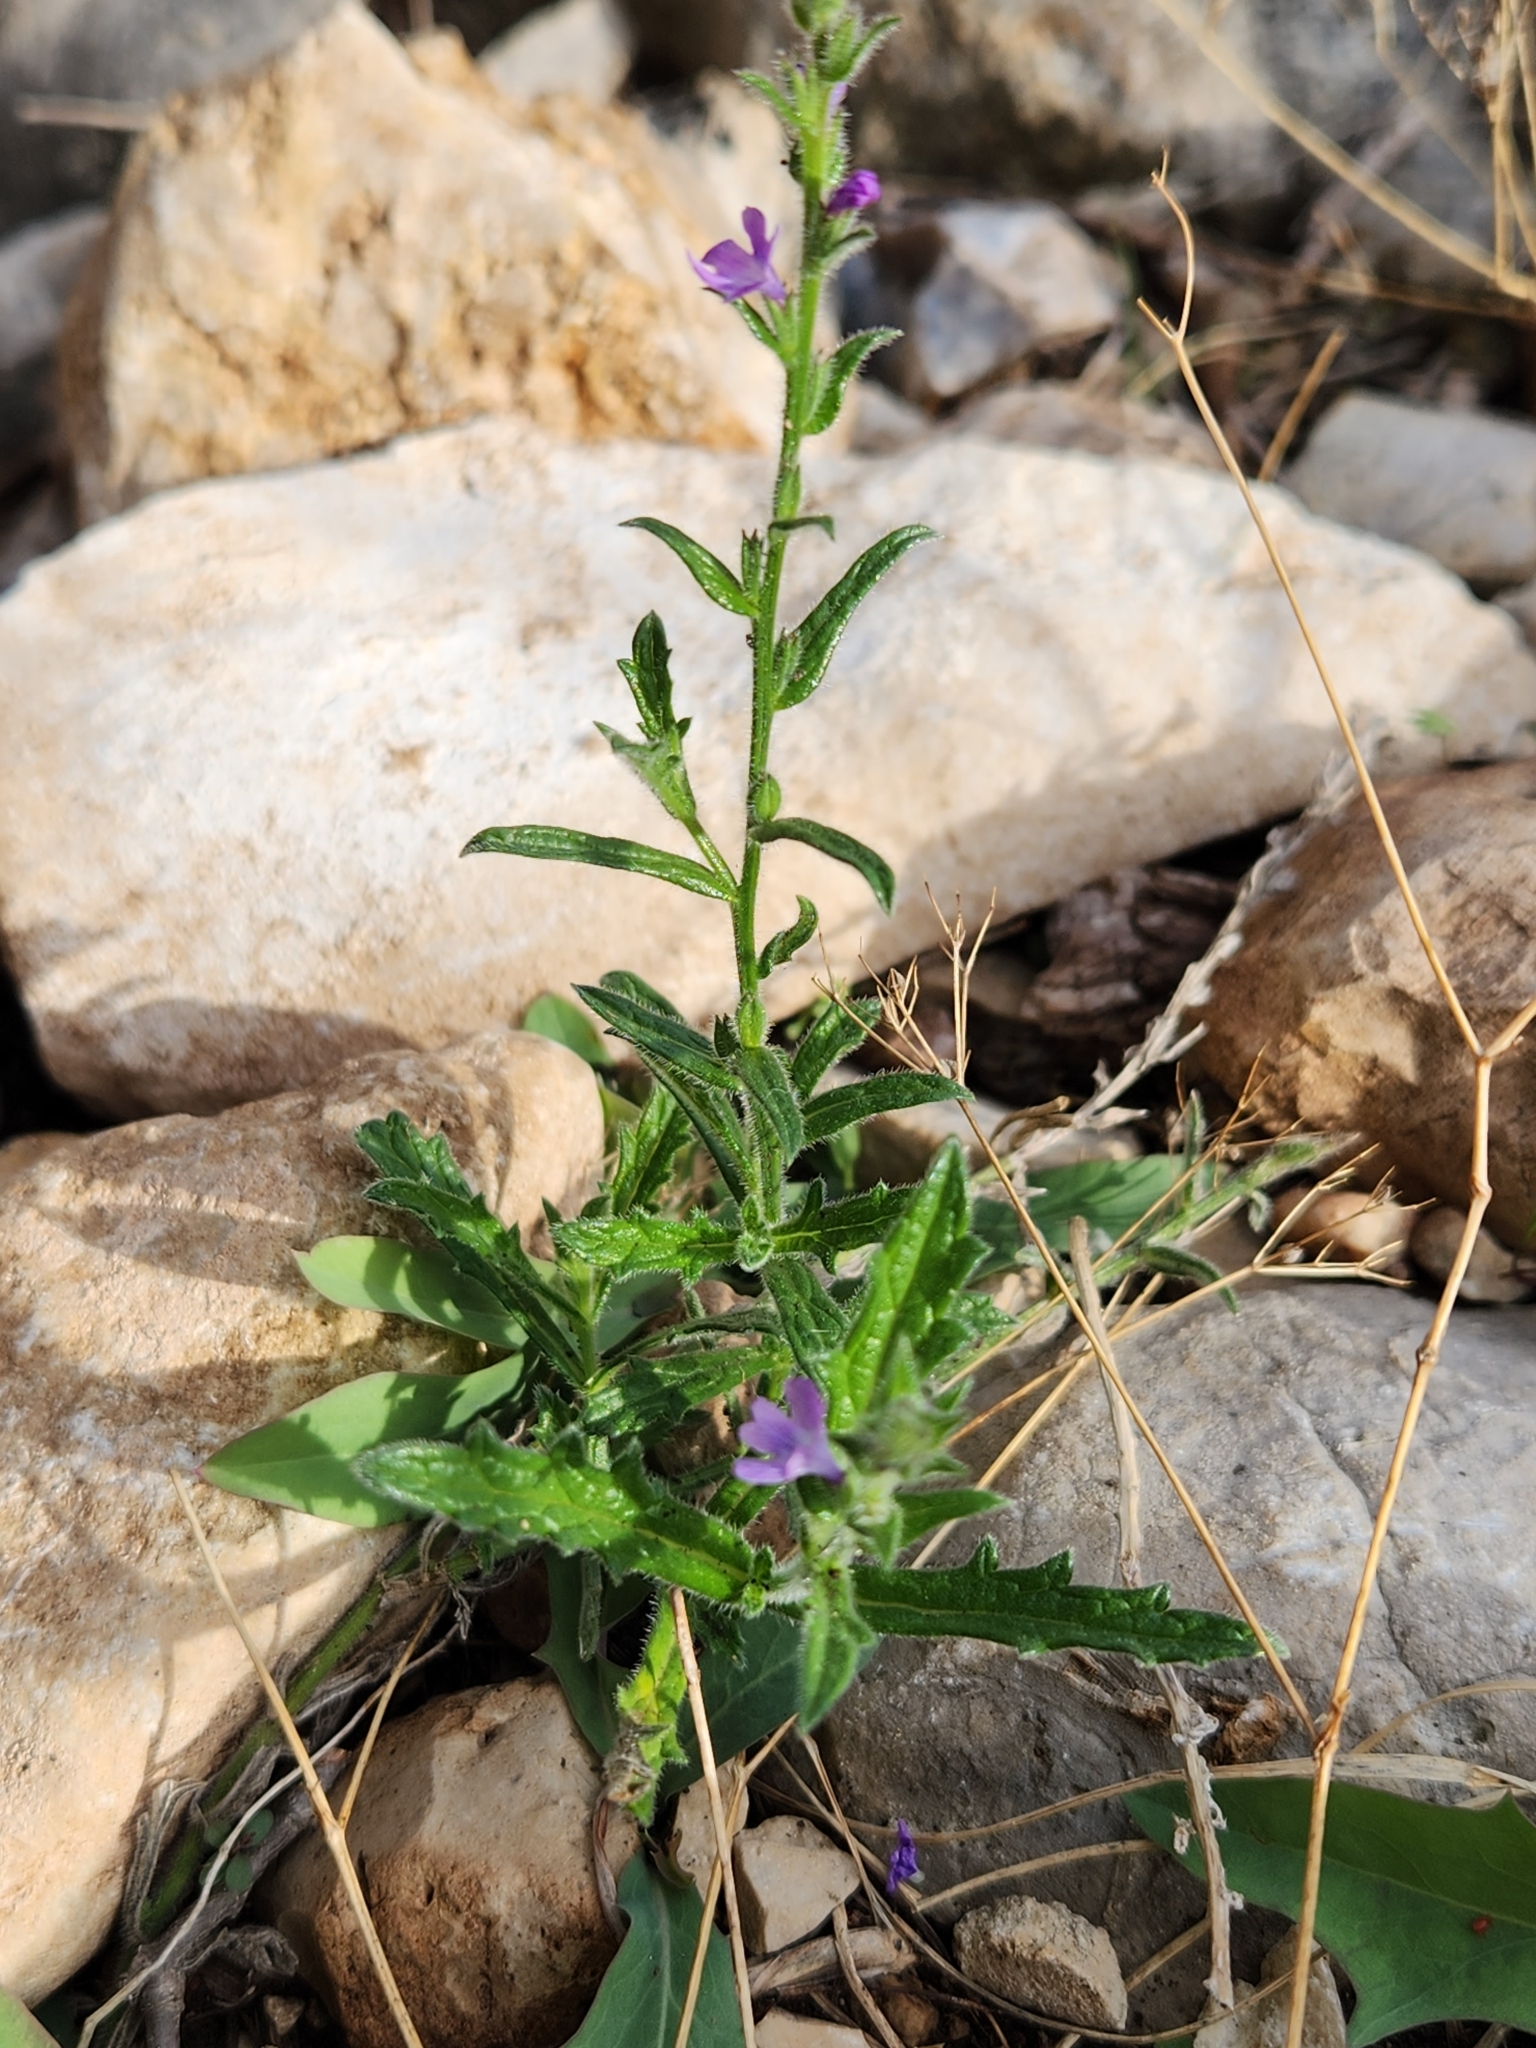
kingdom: Plantae
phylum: Tracheophyta
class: Magnoliopsida
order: Lamiales
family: Verbenaceae
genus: Verbena
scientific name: Verbena canescens
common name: Gray vervain
